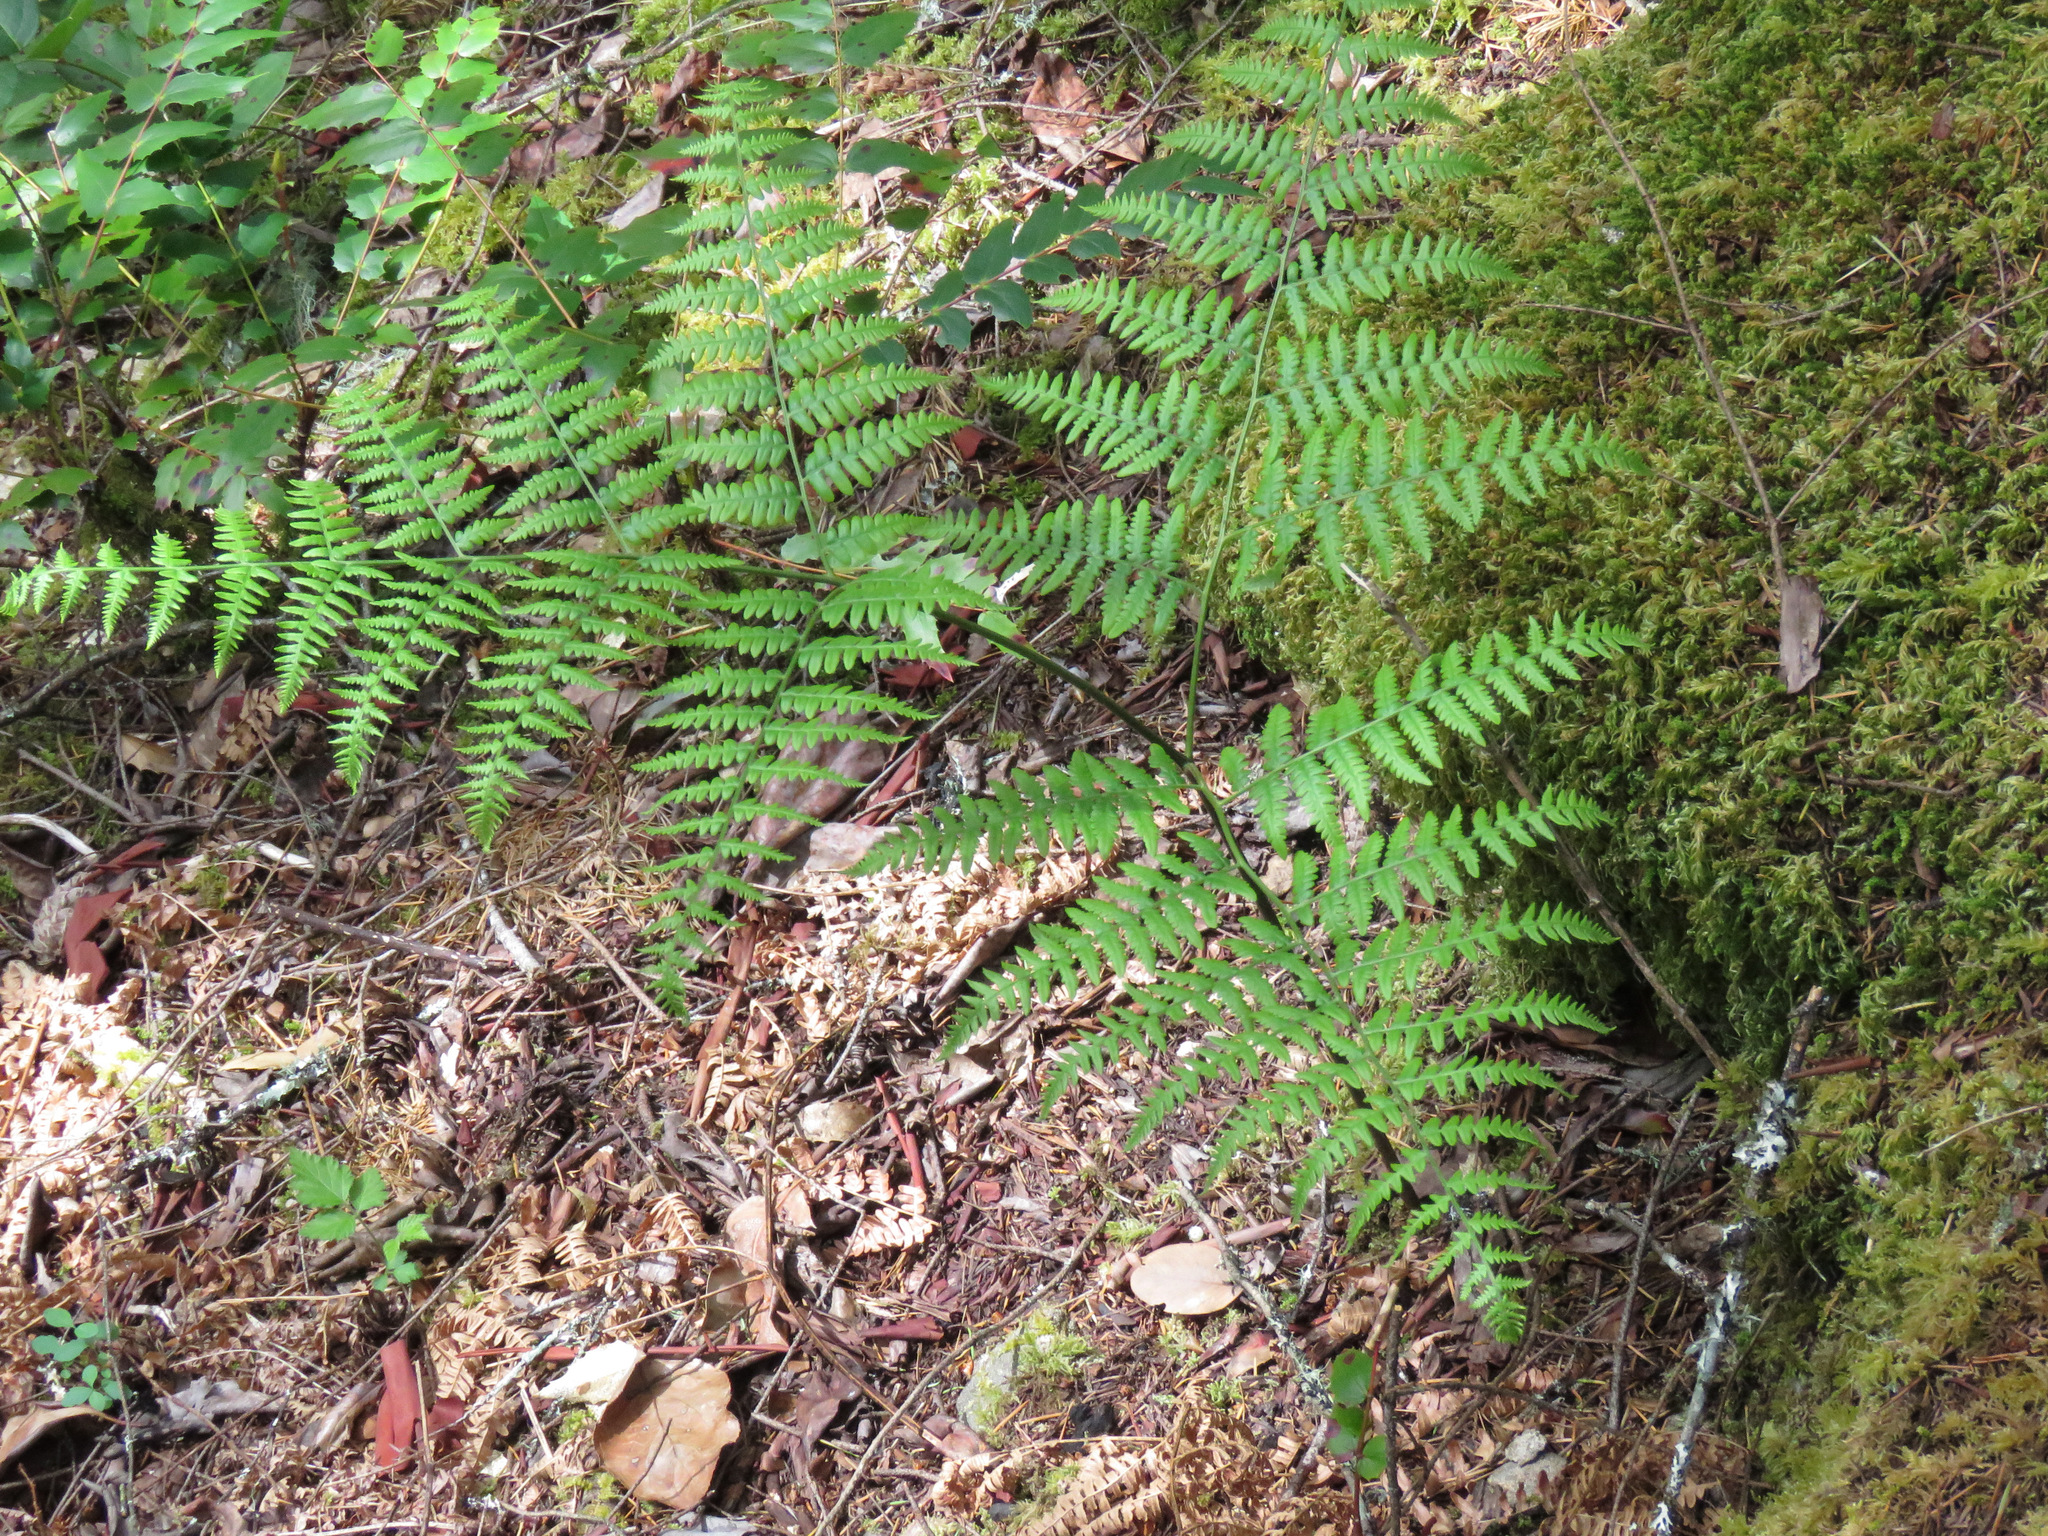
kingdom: Plantae
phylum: Tracheophyta
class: Polypodiopsida
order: Polypodiales
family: Dennstaedtiaceae
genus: Pteridium
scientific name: Pteridium aquilinum
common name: Bracken
